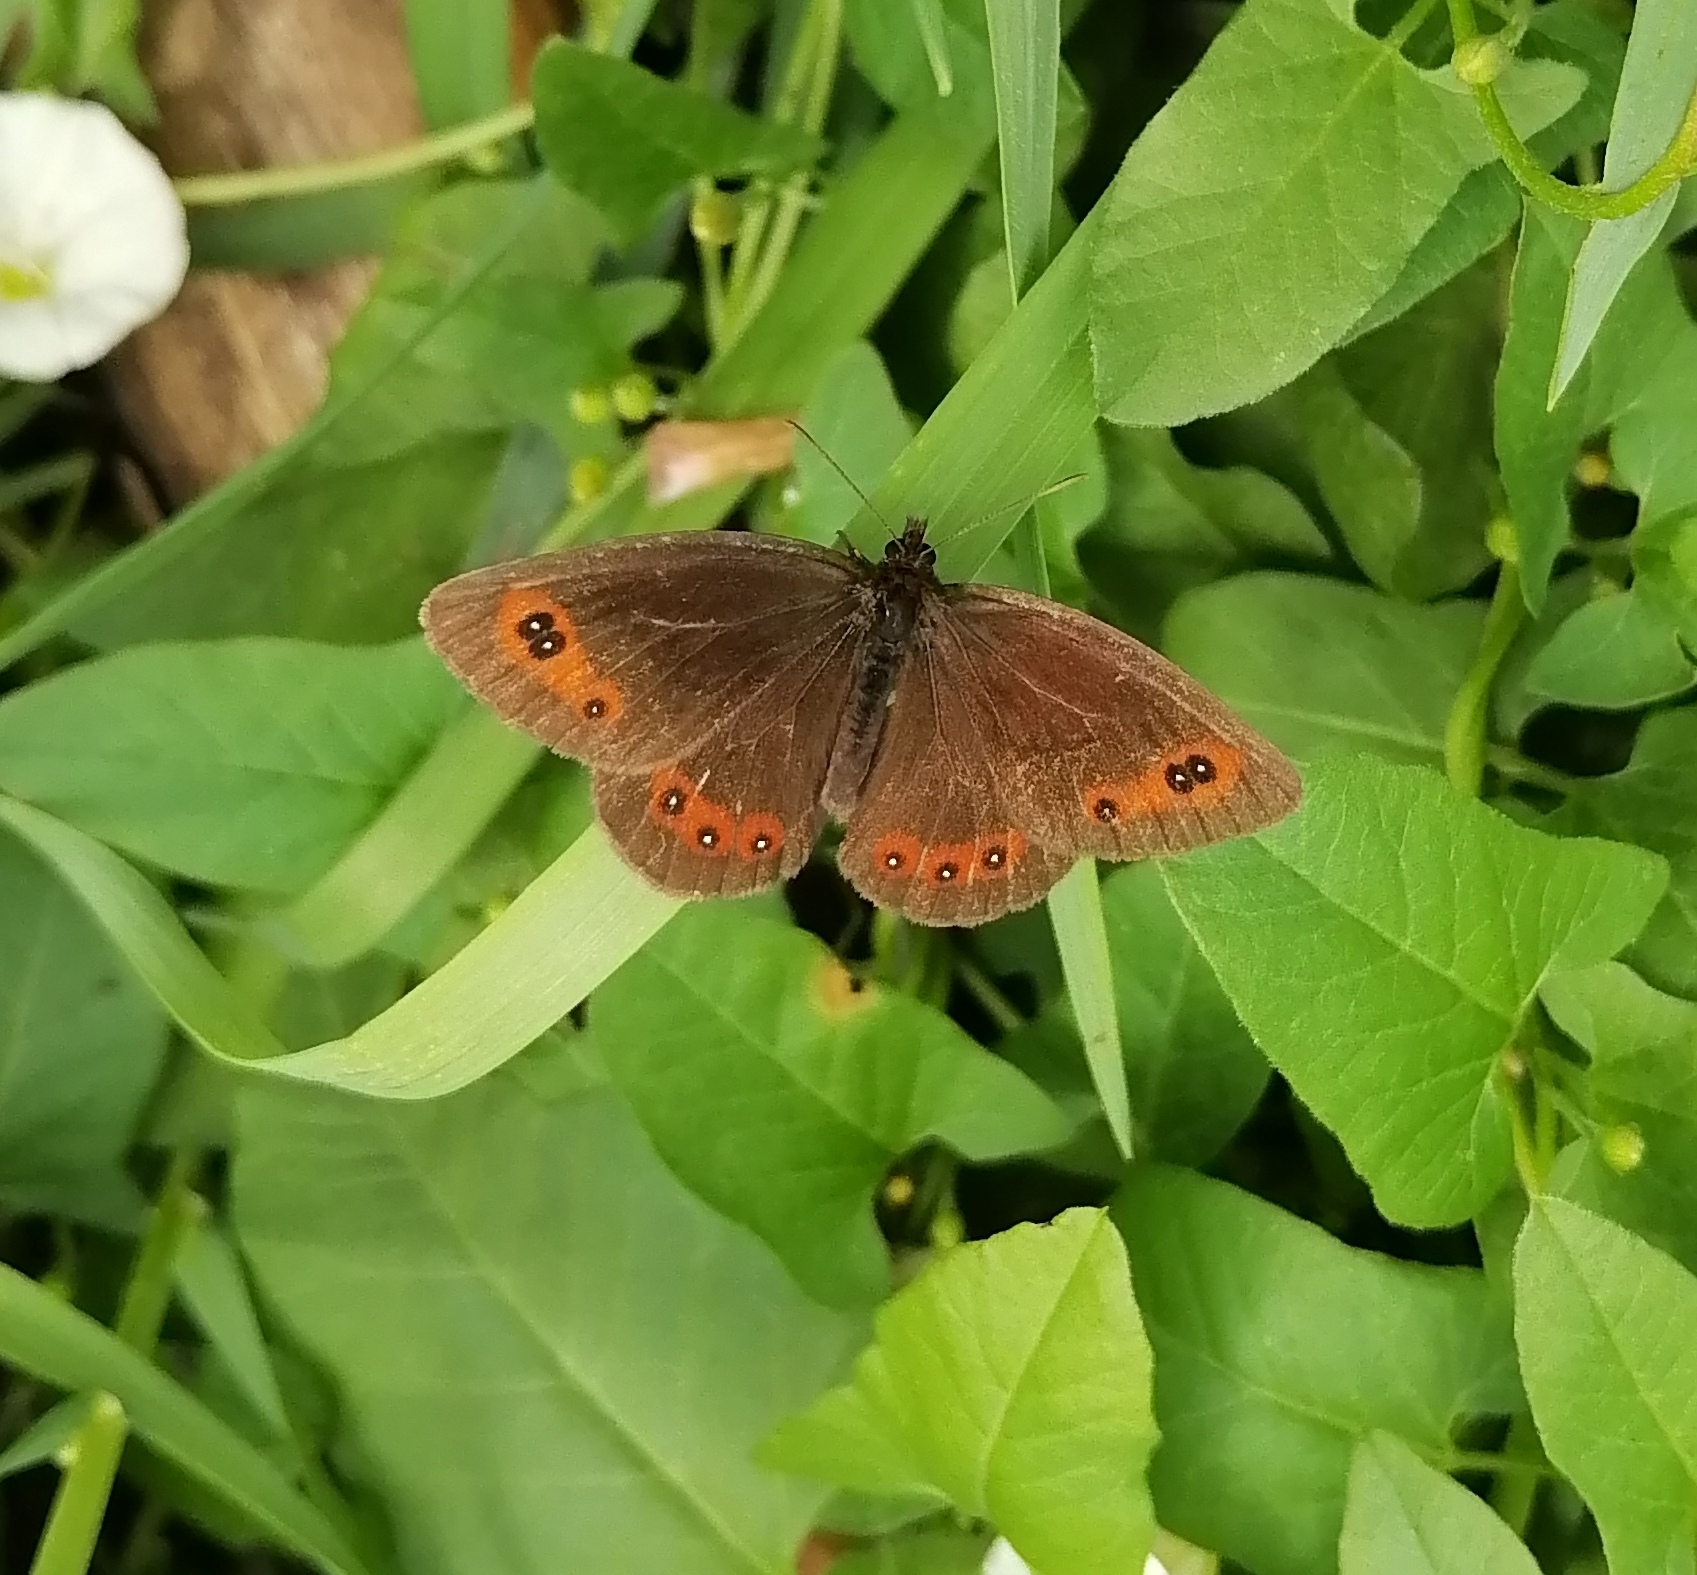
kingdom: Animalia
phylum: Arthropoda
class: Insecta
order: Lepidoptera
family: Nymphalidae
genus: Erebia
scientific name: Erebia aethiops
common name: Scotch argus
